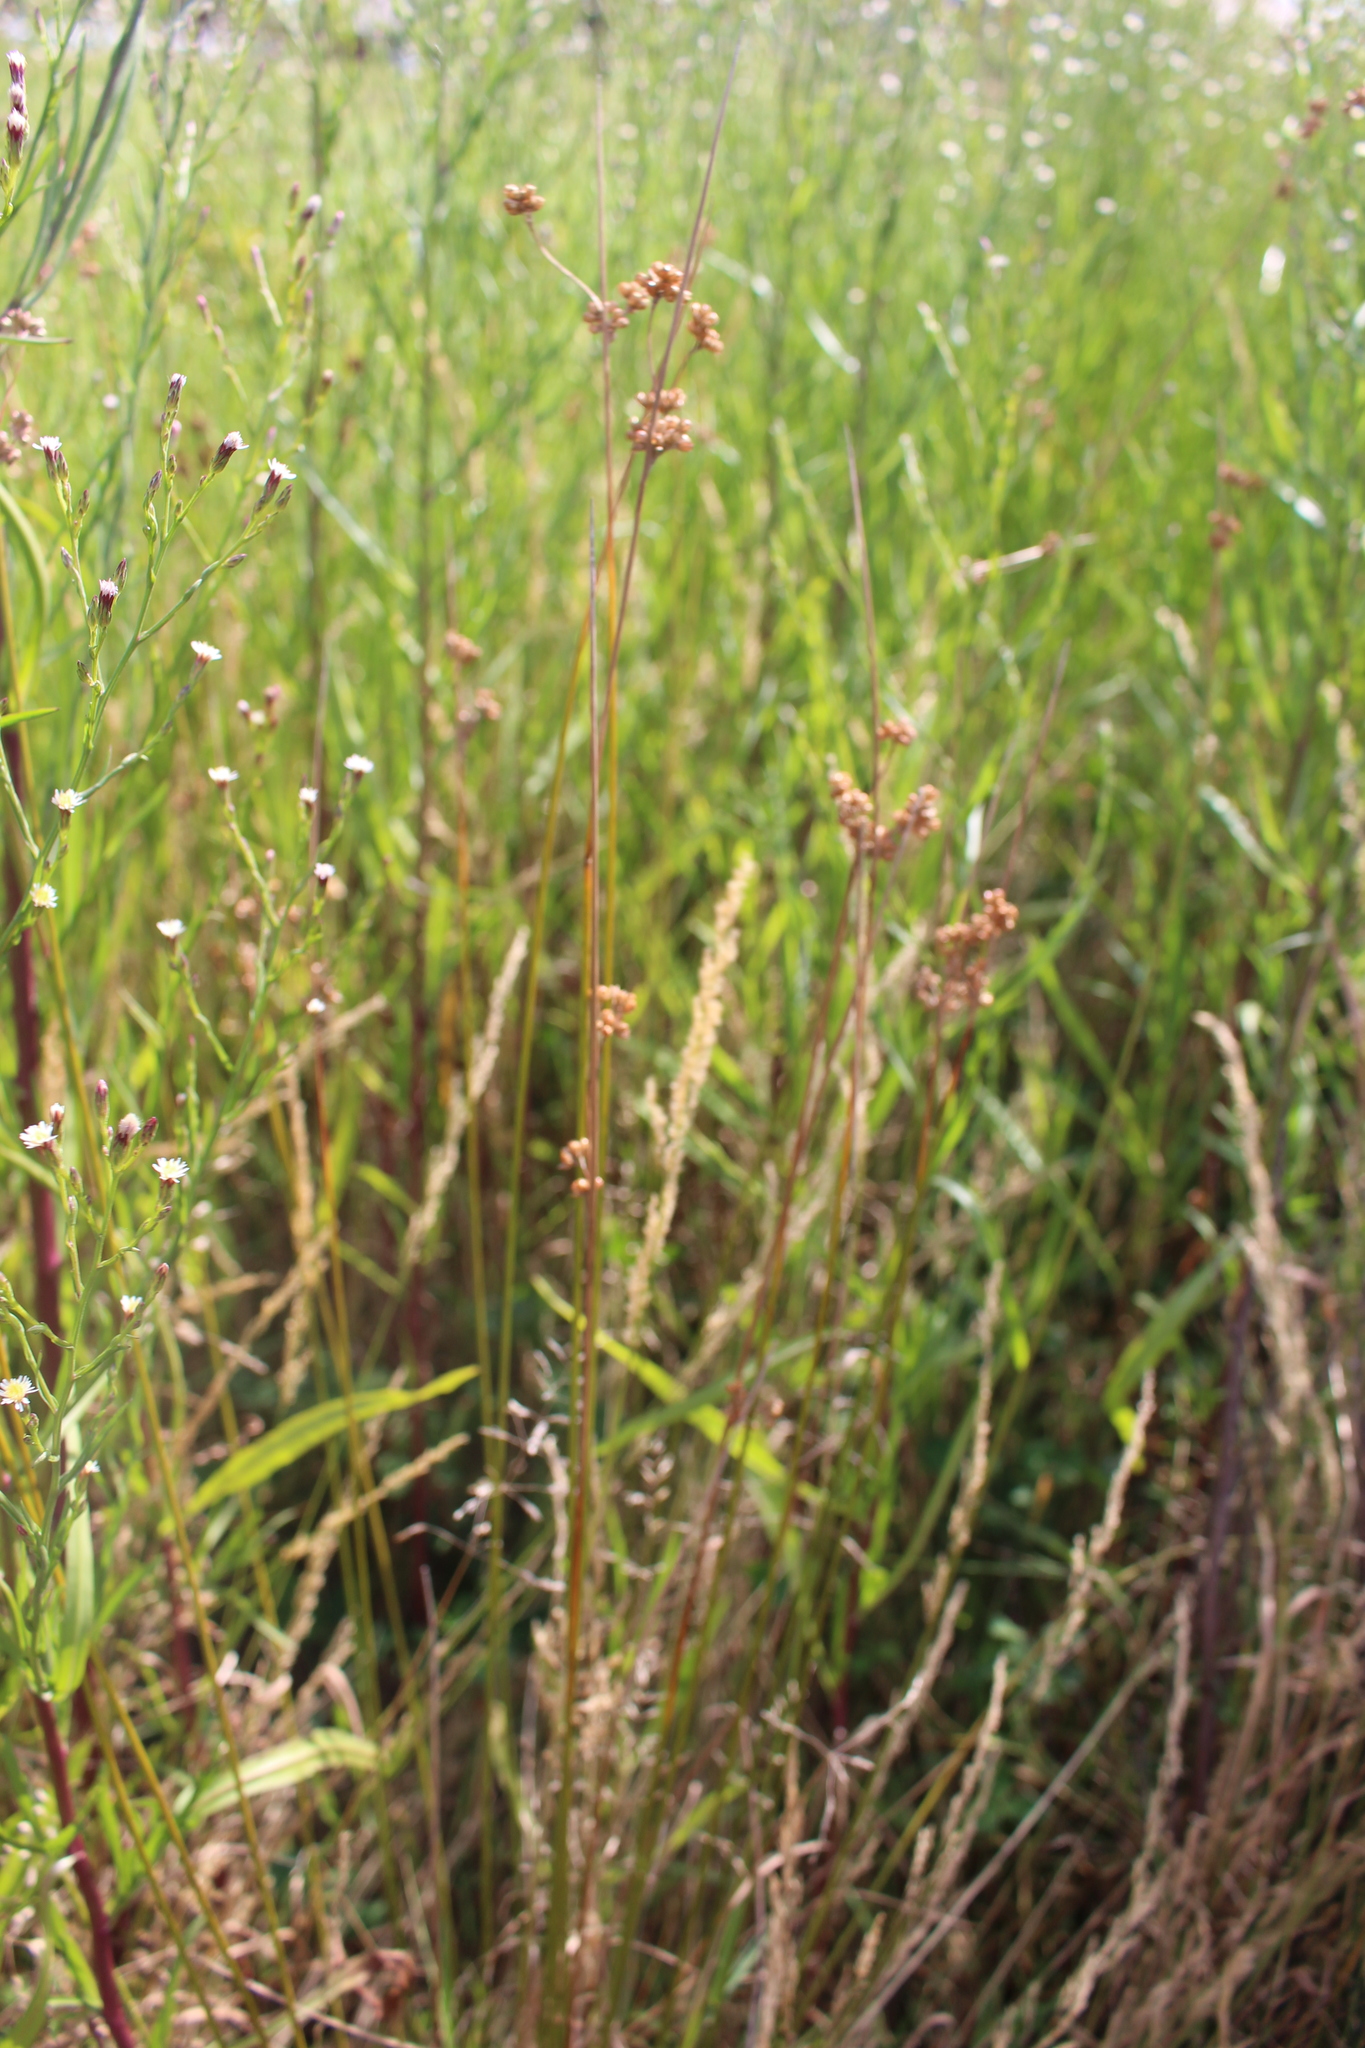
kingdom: Plantae
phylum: Tracheophyta
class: Liliopsida
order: Poales
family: Juncaceae
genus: Juncus
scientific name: Juncus australis
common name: Austral rush
